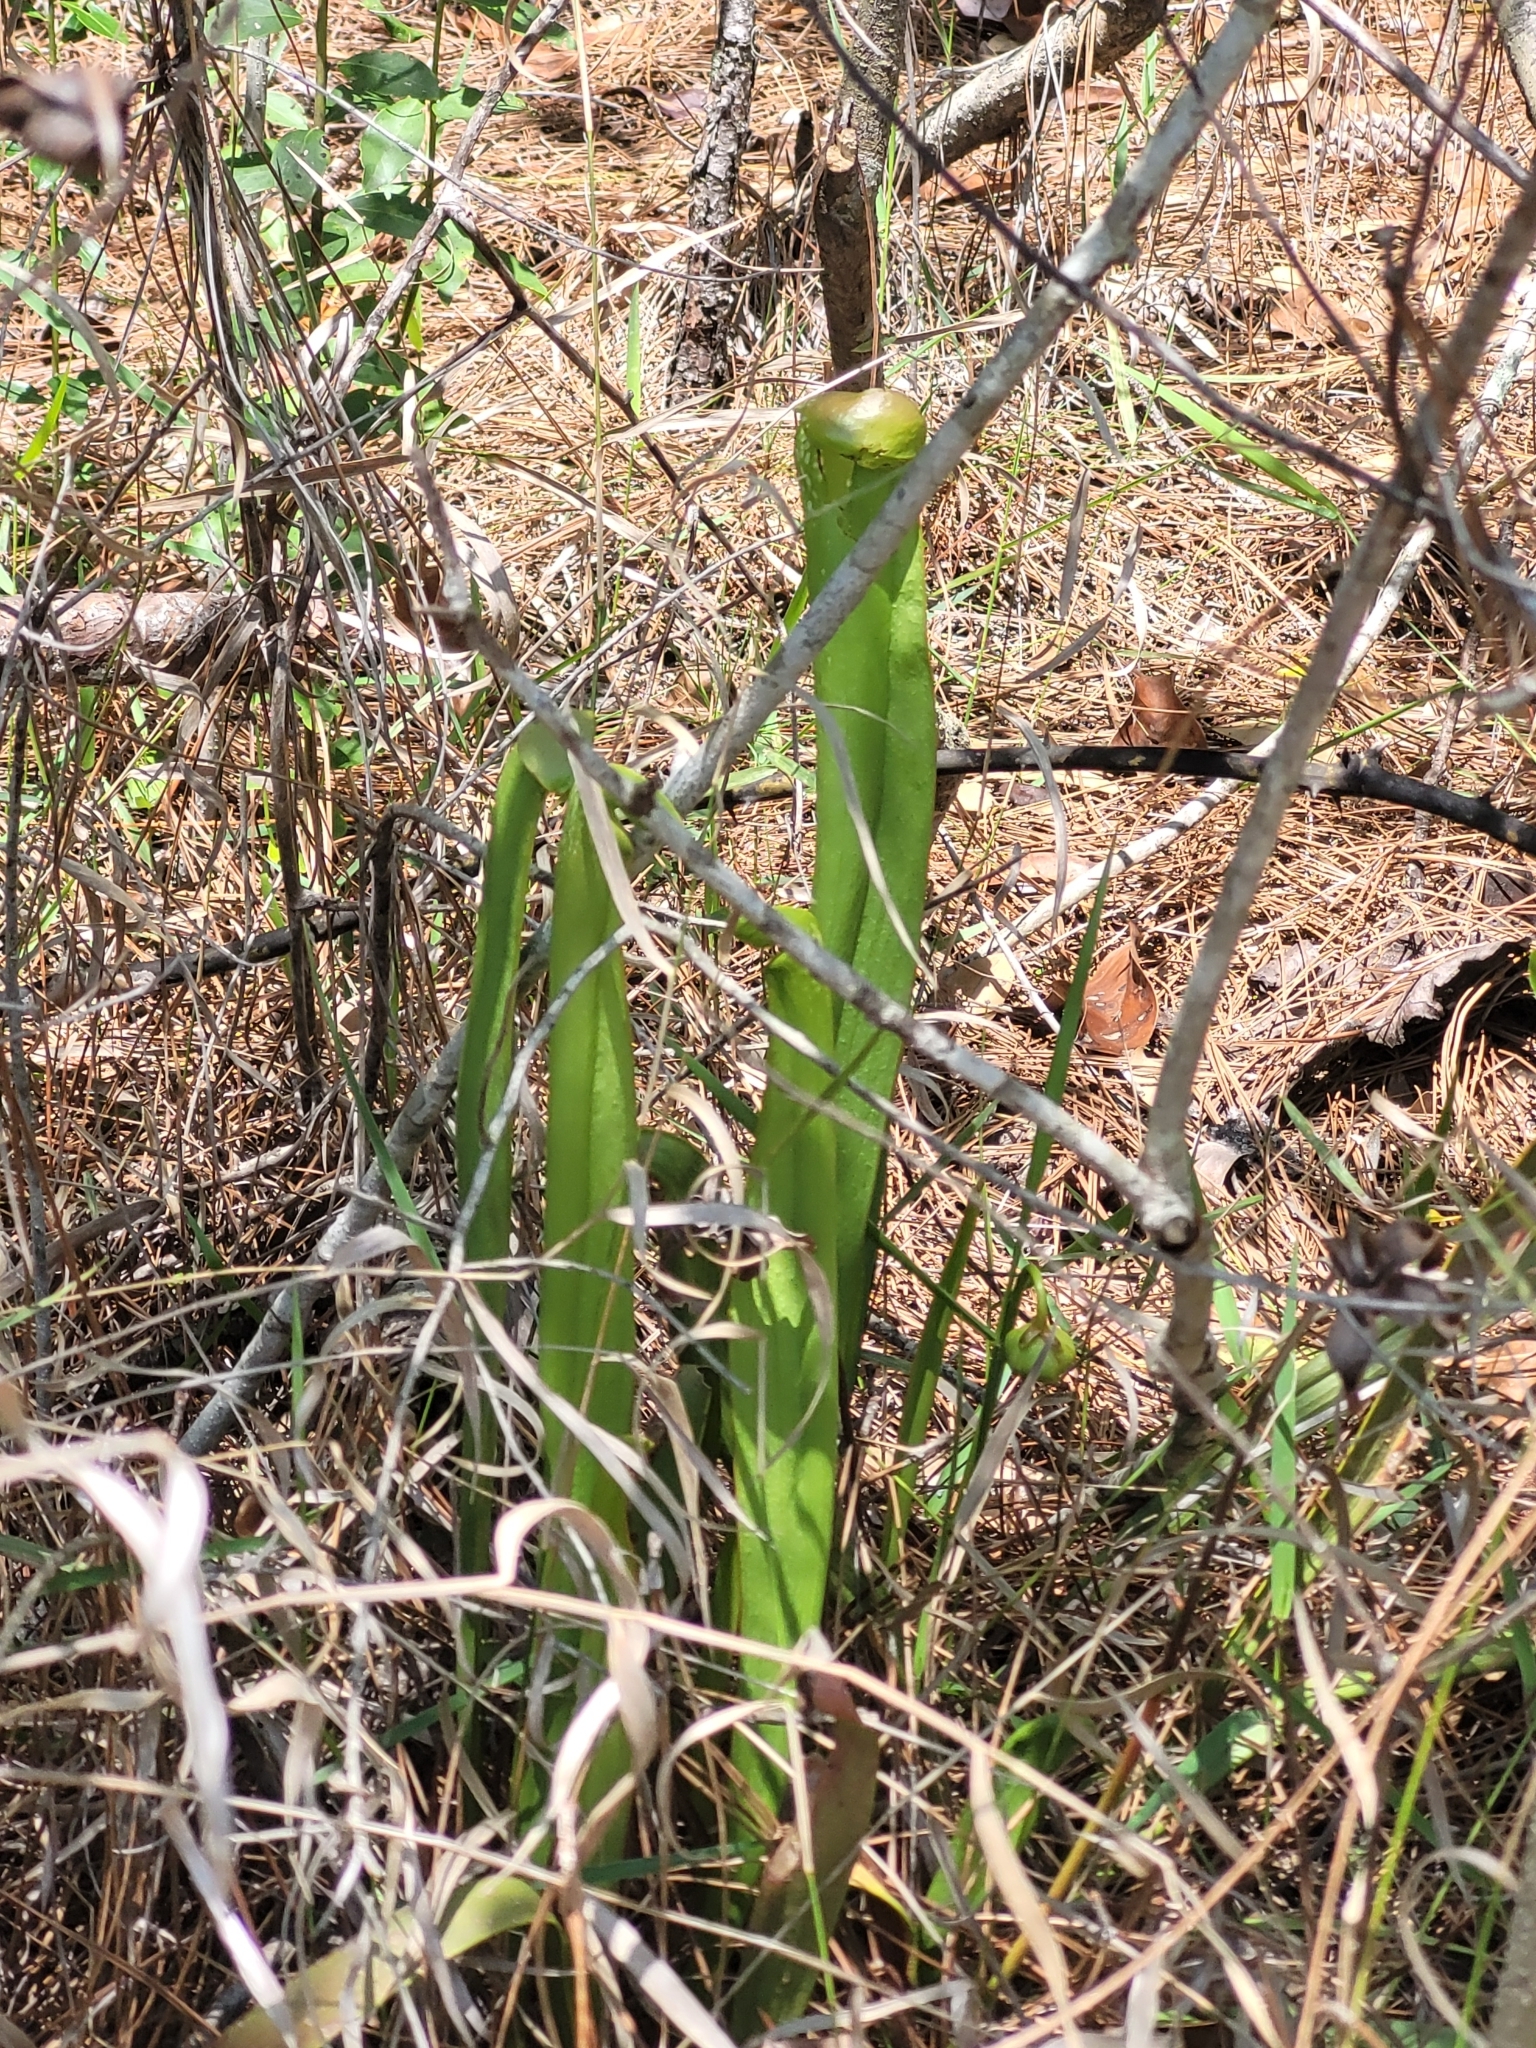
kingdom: Plantae
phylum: Tracheophyta
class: Magnoliopsida
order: Ericales
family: Sarraceniaceae
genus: Sarracenia
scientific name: Sarracenia minor
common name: Rainhat-trumpet
